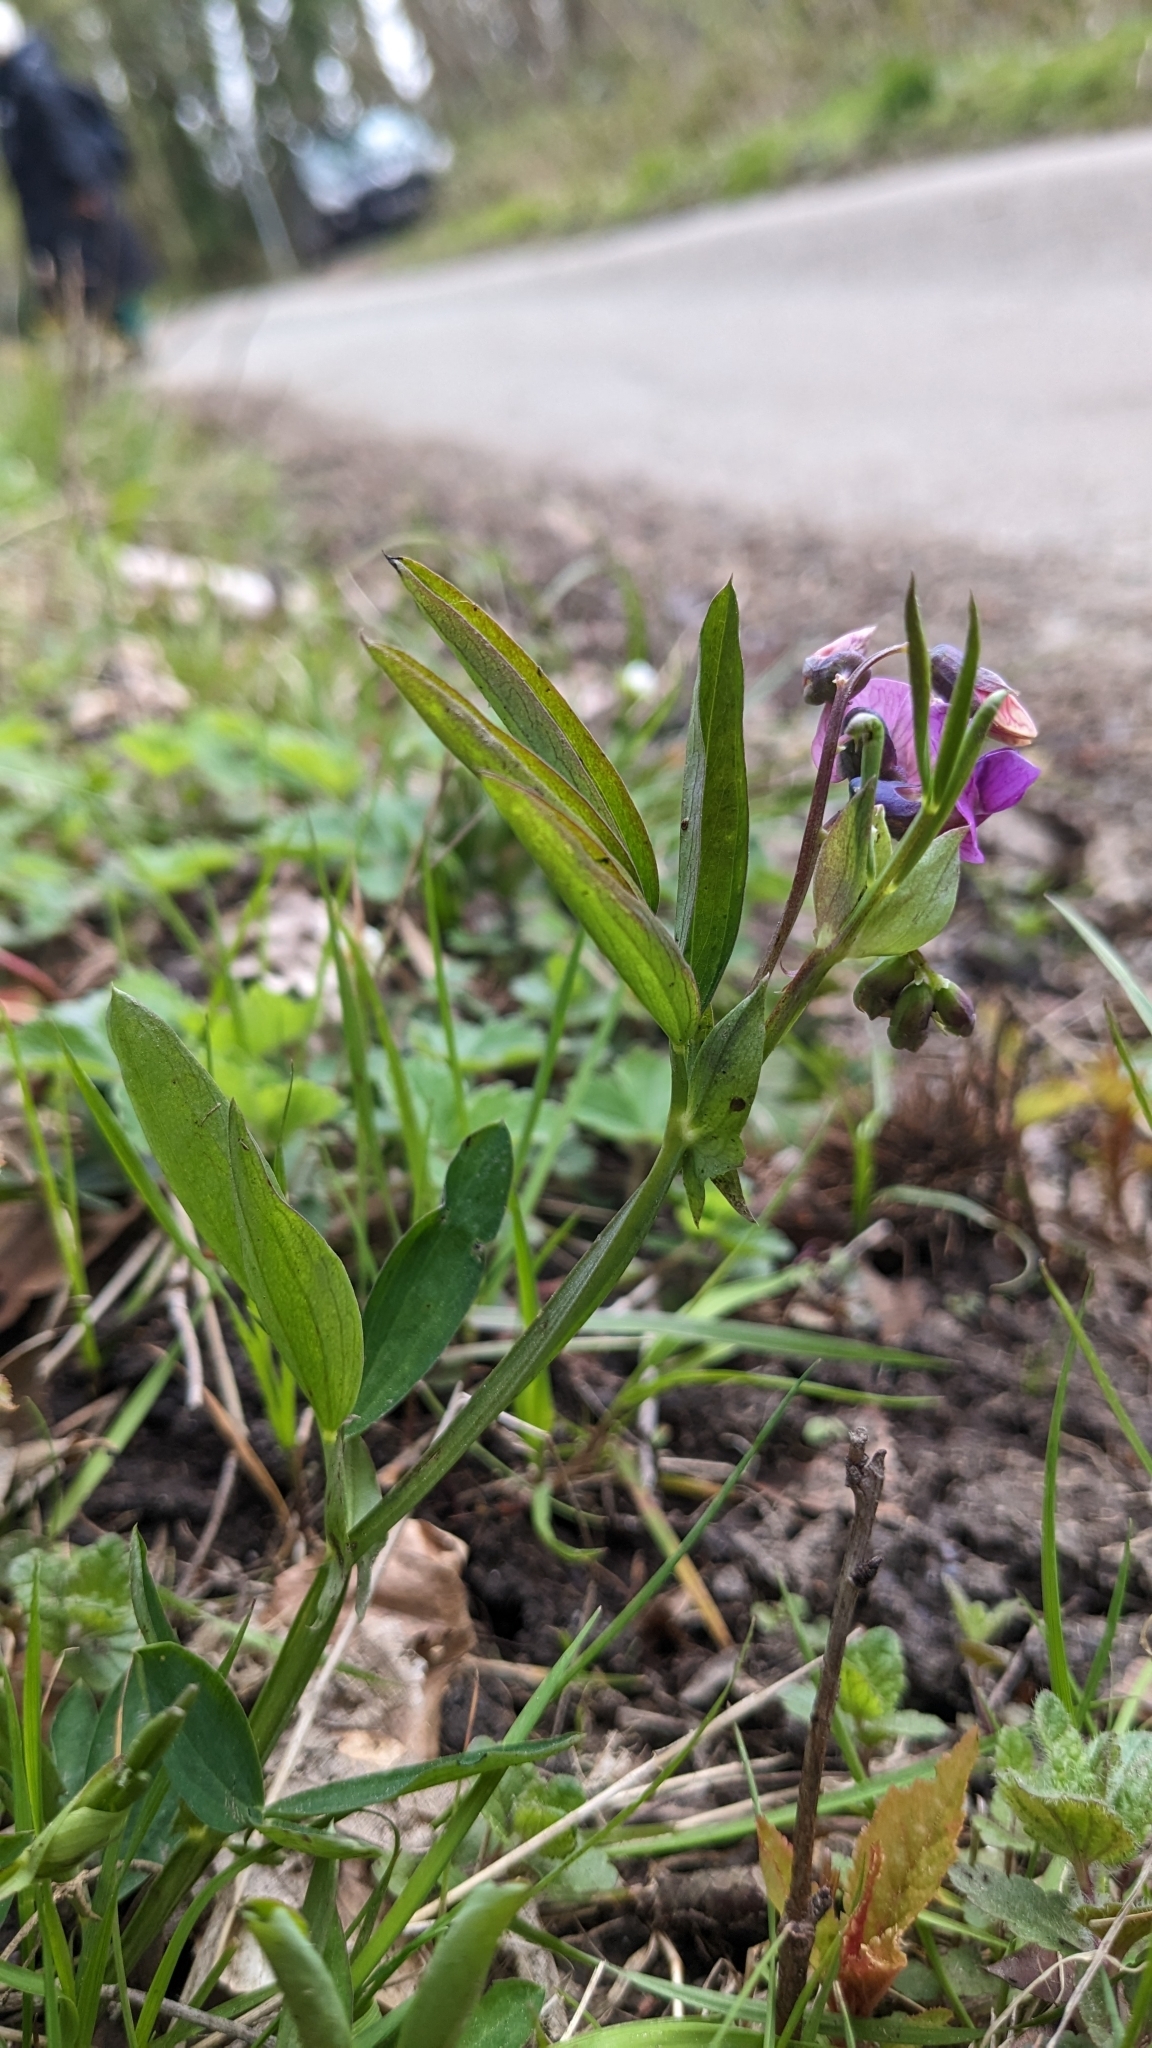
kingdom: Plantae
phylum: Tracheophyta
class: Magnoliopsida
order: Fabales
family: Fabaceae
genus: Lathyrus
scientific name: Lathyrus linifolius
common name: Bitter-vetch
